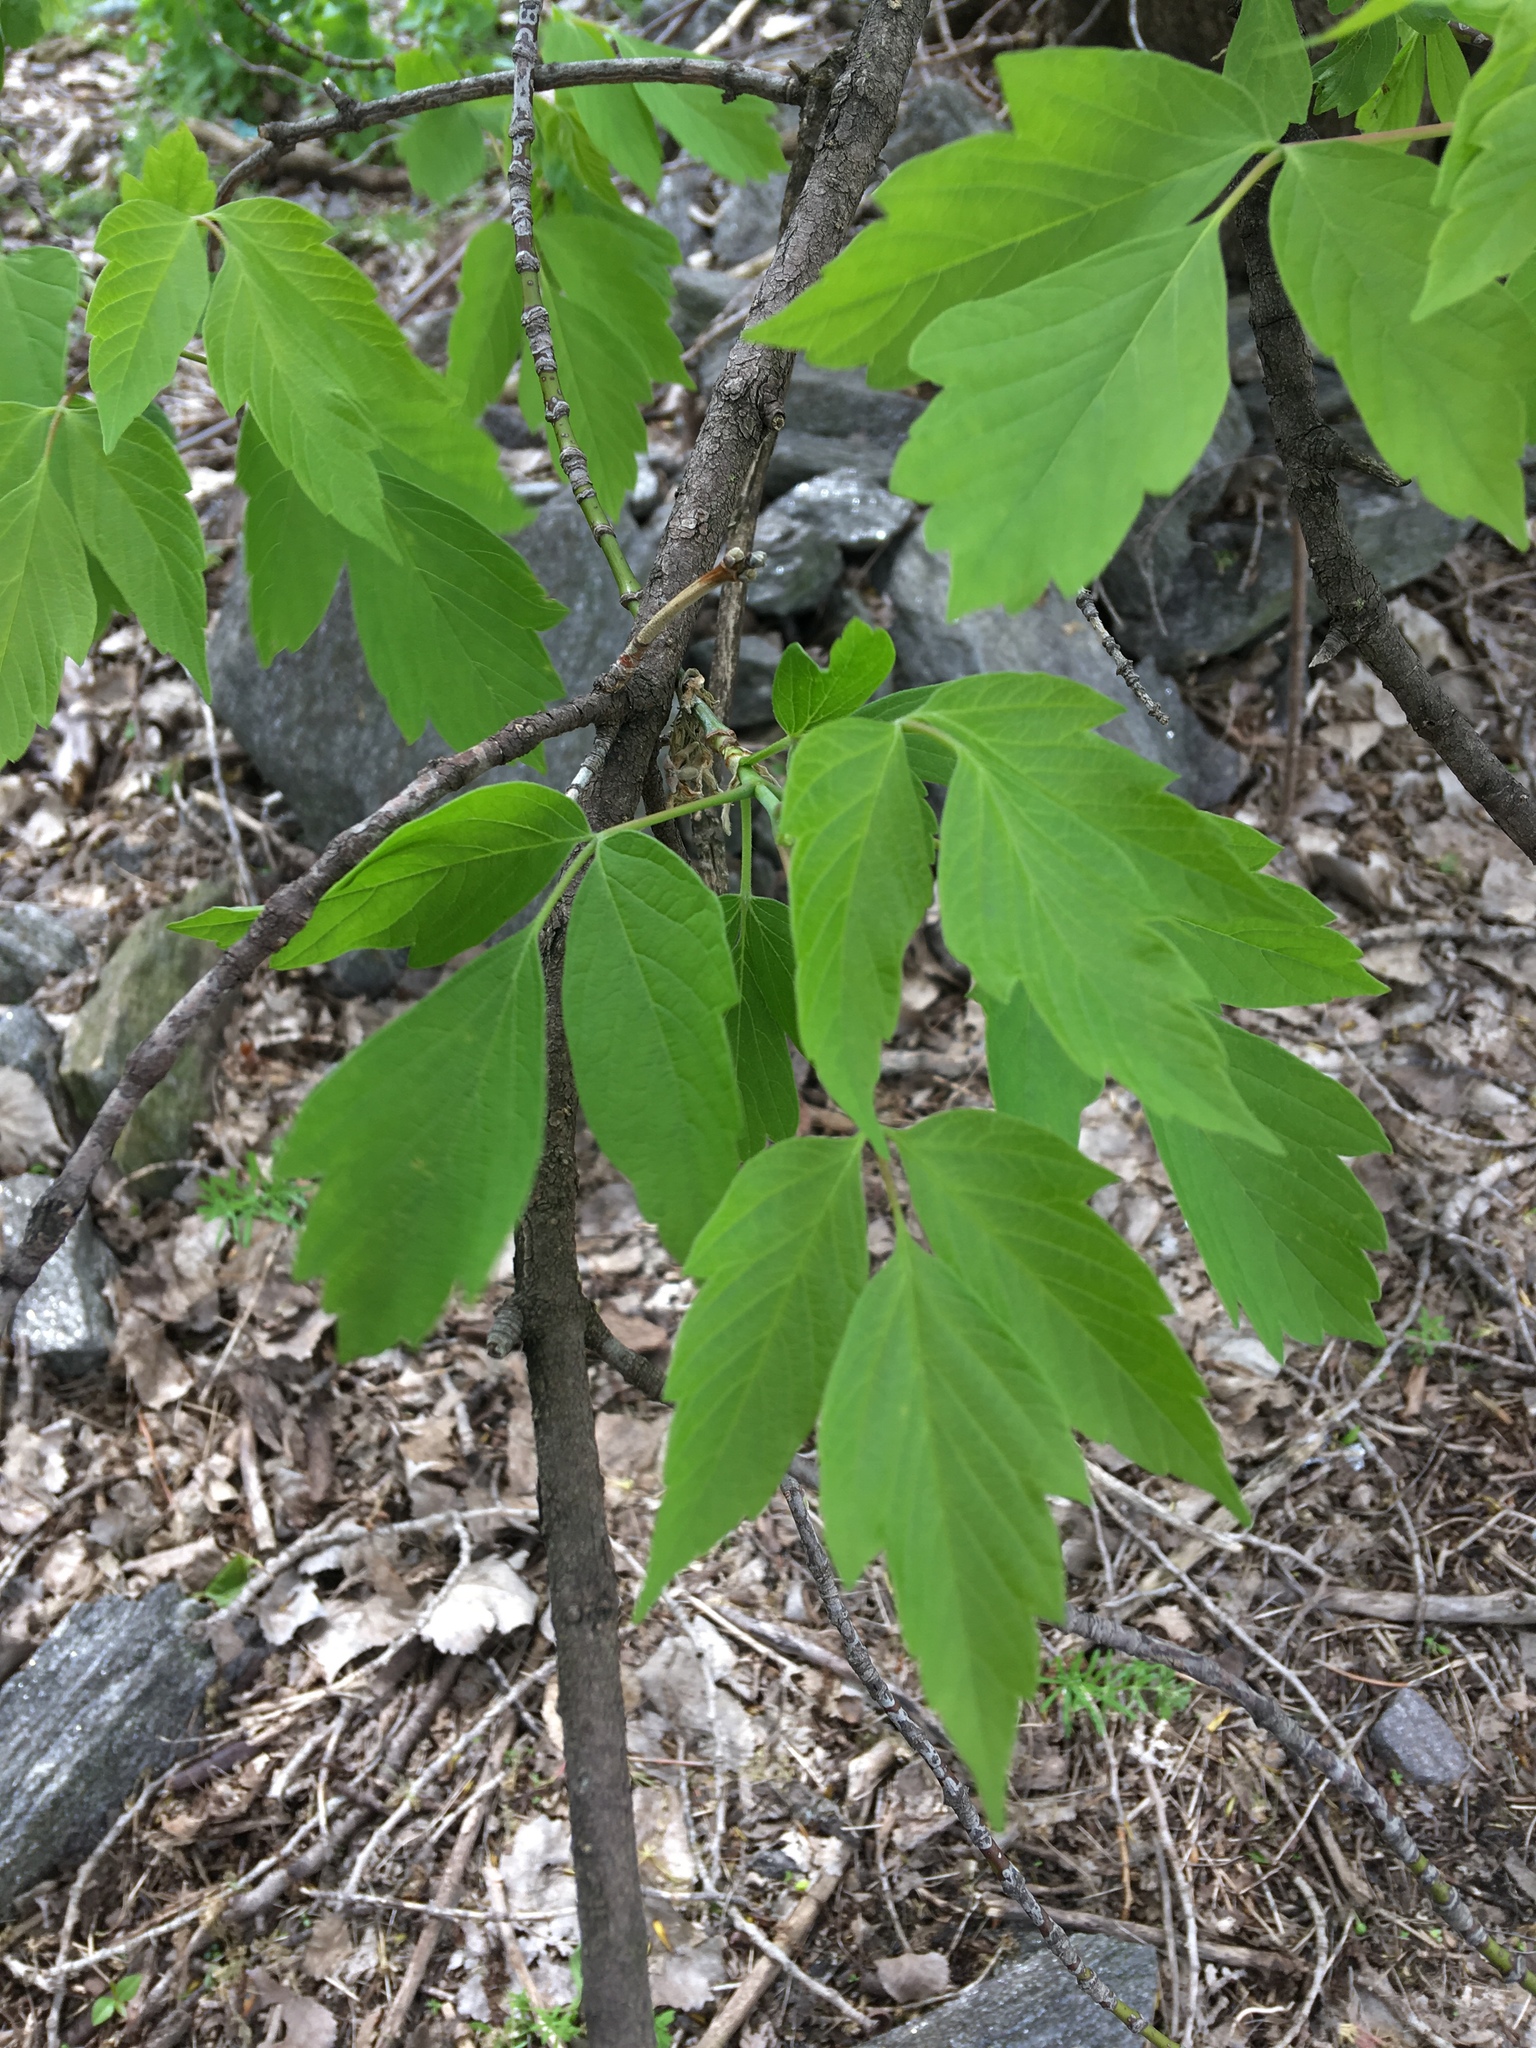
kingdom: Plantae
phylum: Tracheophyta
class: Magnoliopsida
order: Sapindales
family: Sapindaceae
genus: Acer
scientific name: Acer negundo
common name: Ashleaf maple
